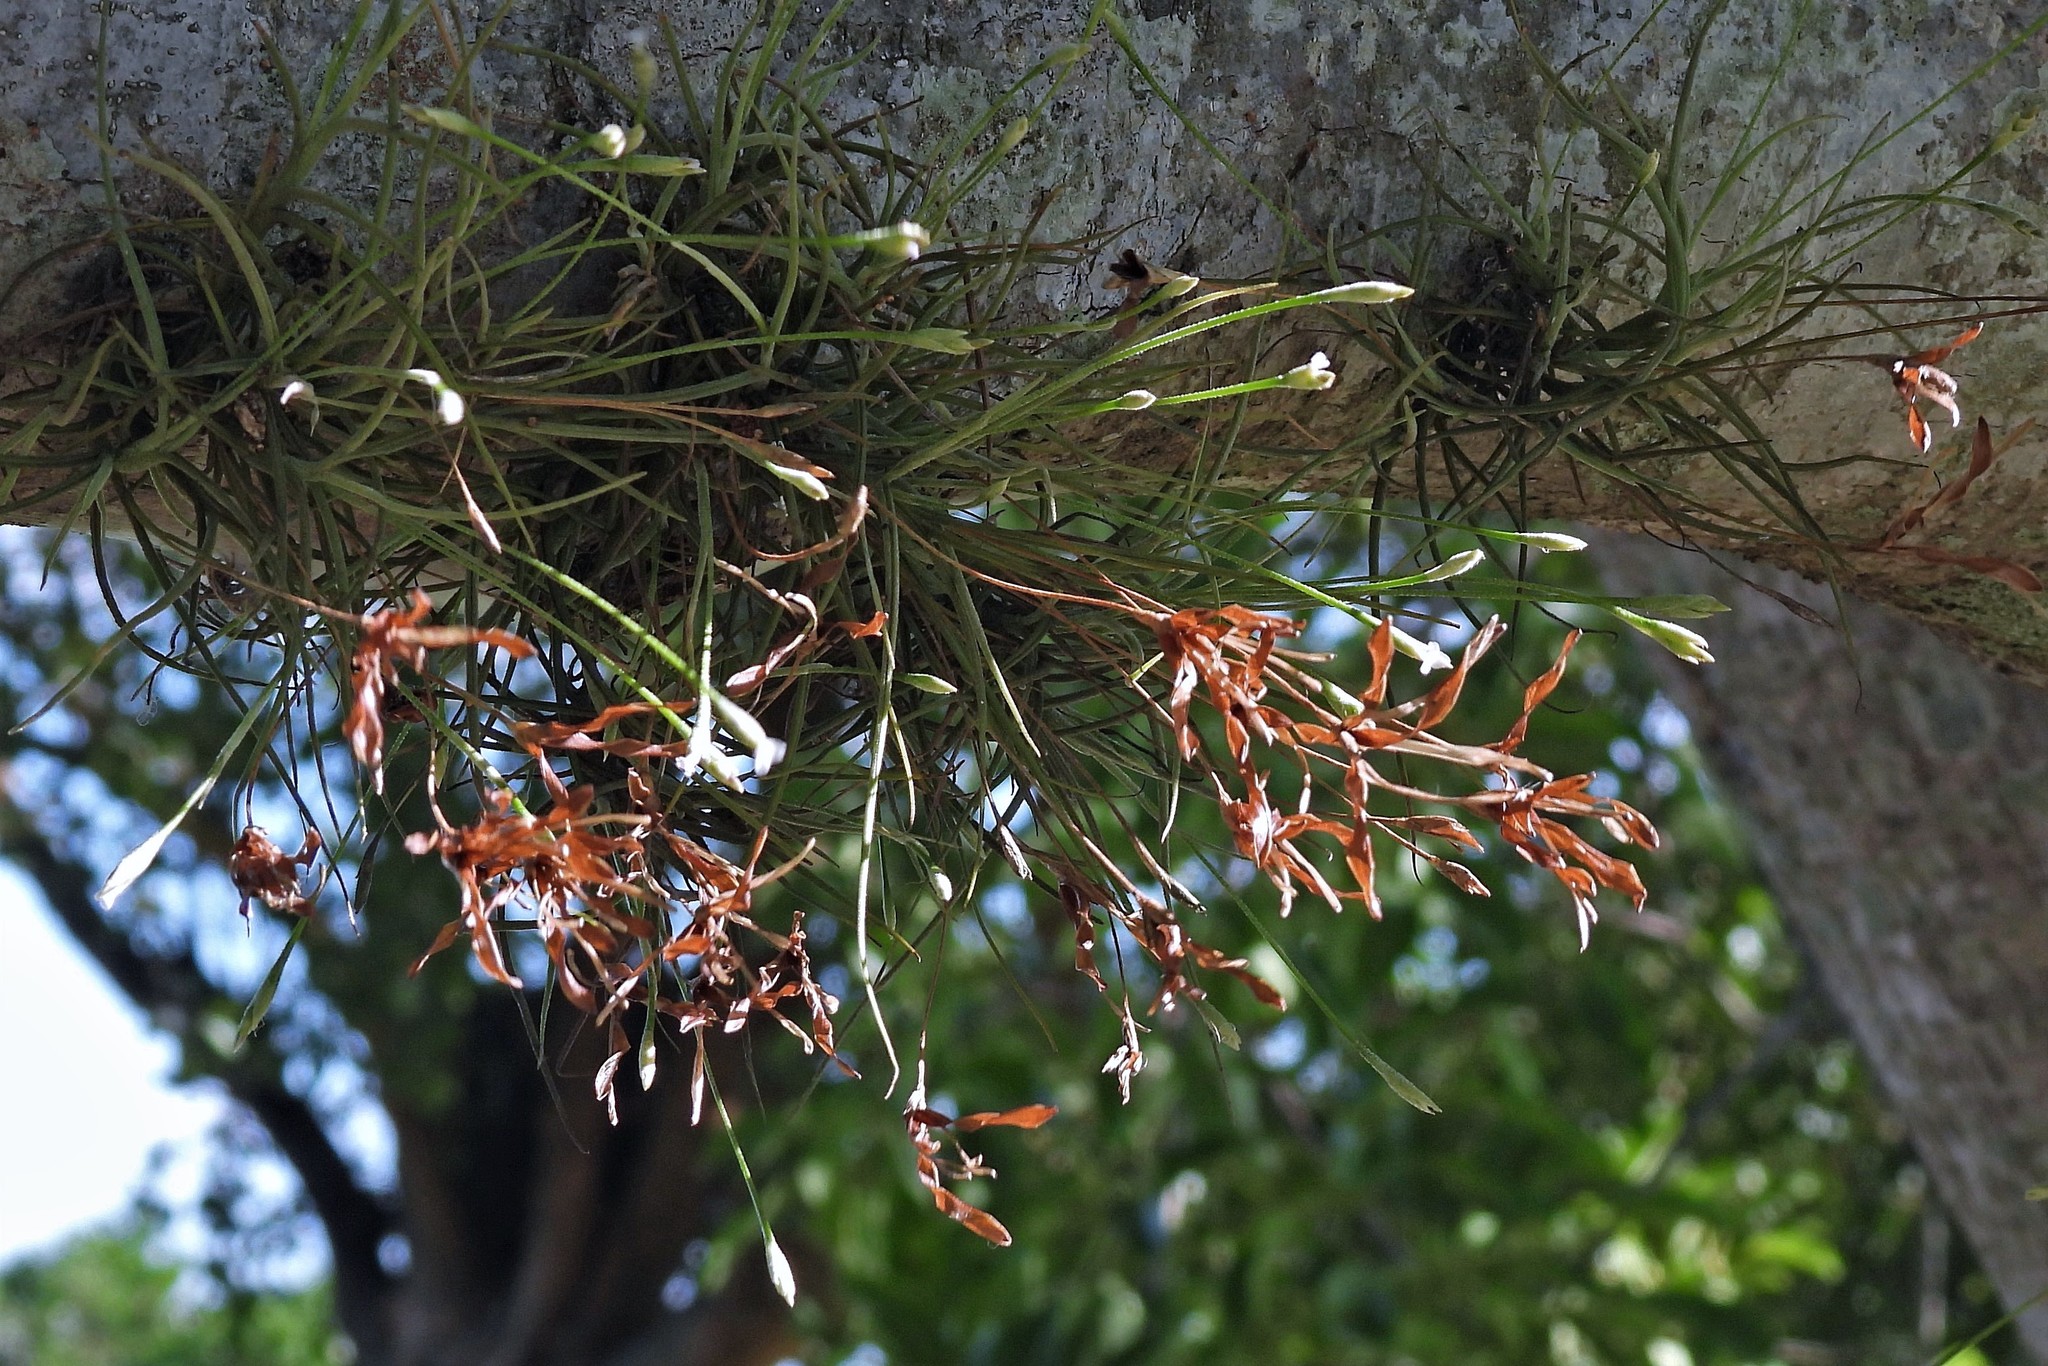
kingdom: Plantae
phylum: Tracheophyta
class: Liliopsida
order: Poales
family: Bromeliaceae
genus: Tillandsia
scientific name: Tillandsia recurvata
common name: Small ballmoss
